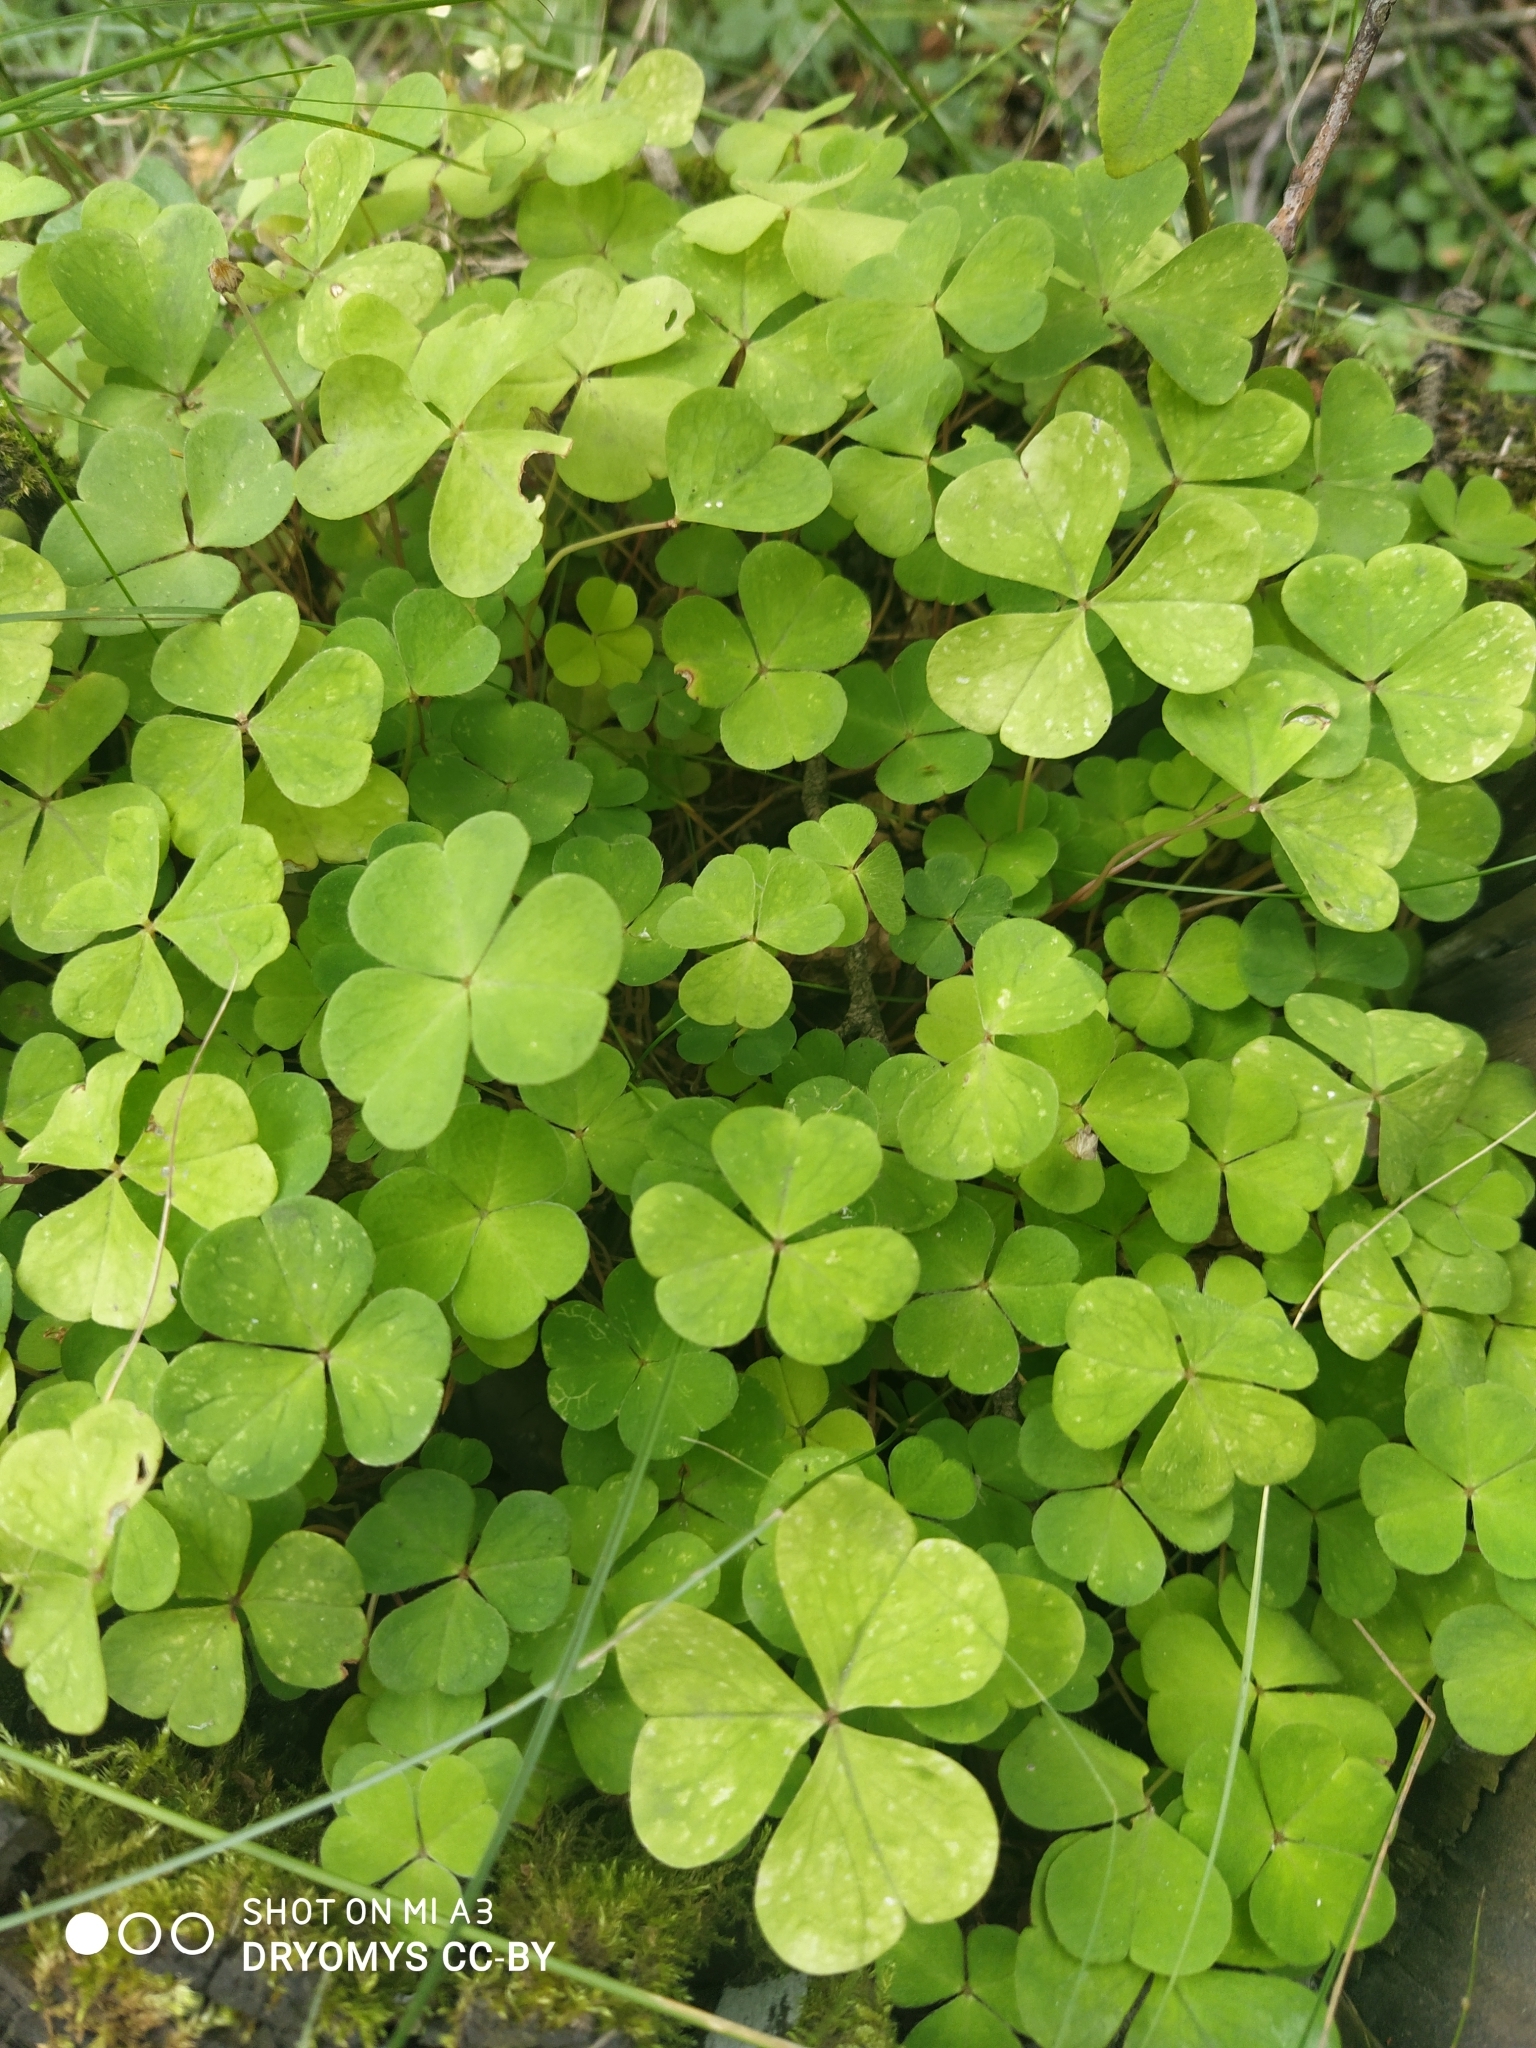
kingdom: Plantae
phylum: Tracheophyta
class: Magnoliopsida
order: Oxalidales
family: Oxalidaceae
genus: Oxalis
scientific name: Oxalis acetosella
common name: Wood-sorrel
